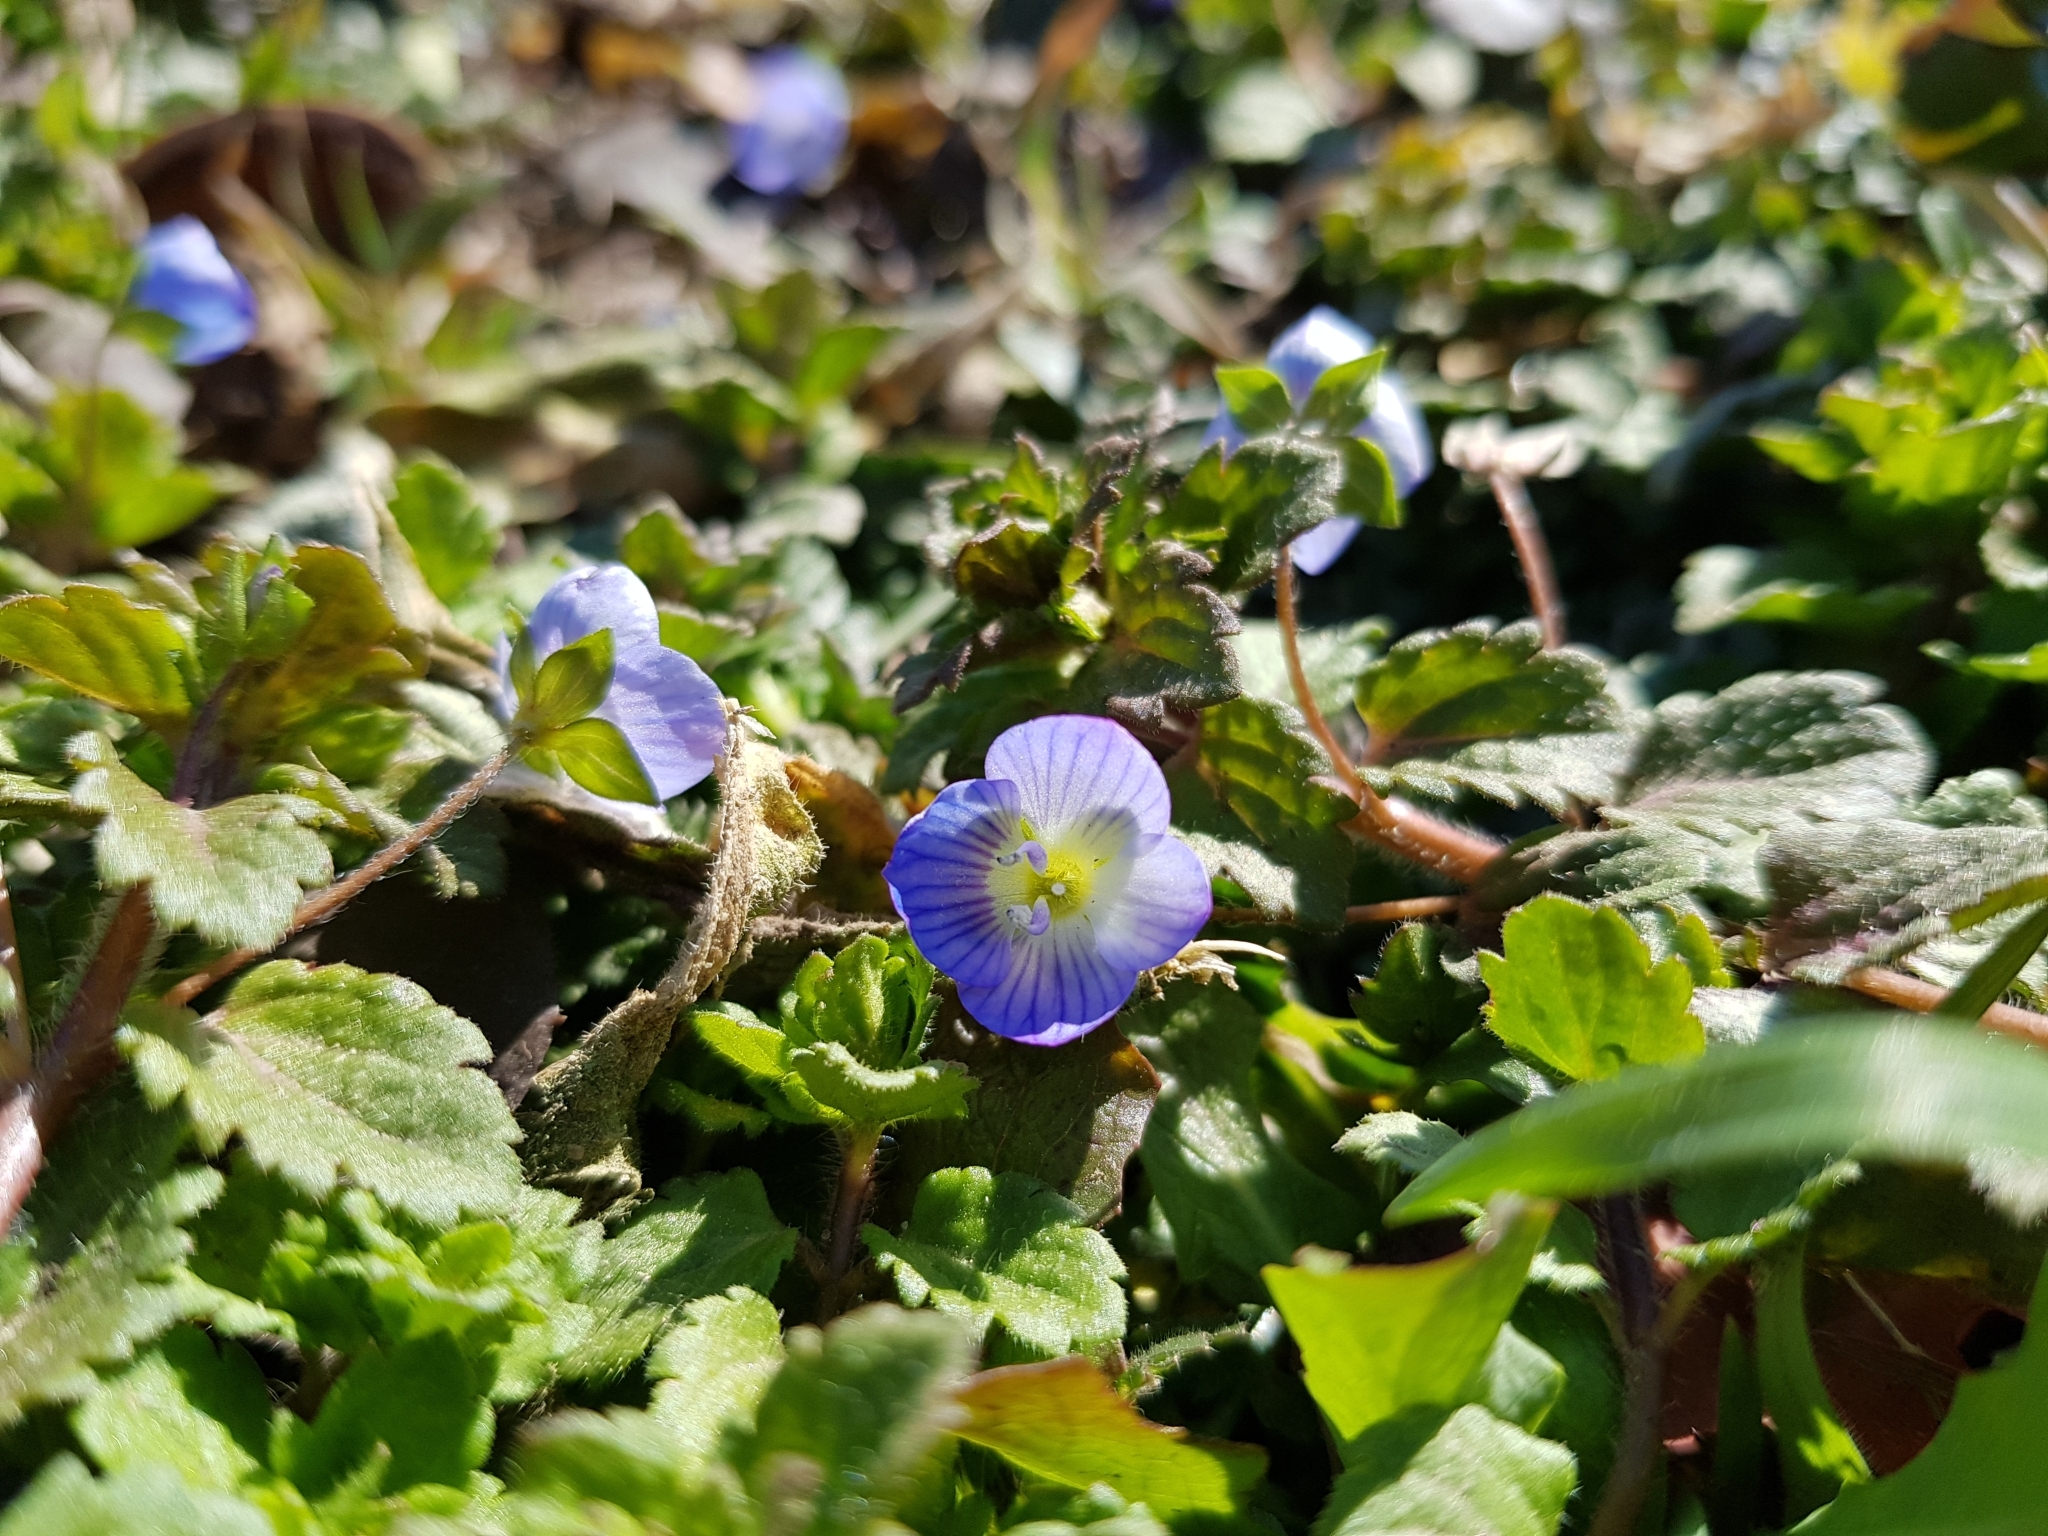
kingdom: Plantae
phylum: Tracheophyta
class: Magnoliopsida
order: Lamiales
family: Plantaginaceae
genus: Veronica
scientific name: Veronica persica
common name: Common field-speedwell
